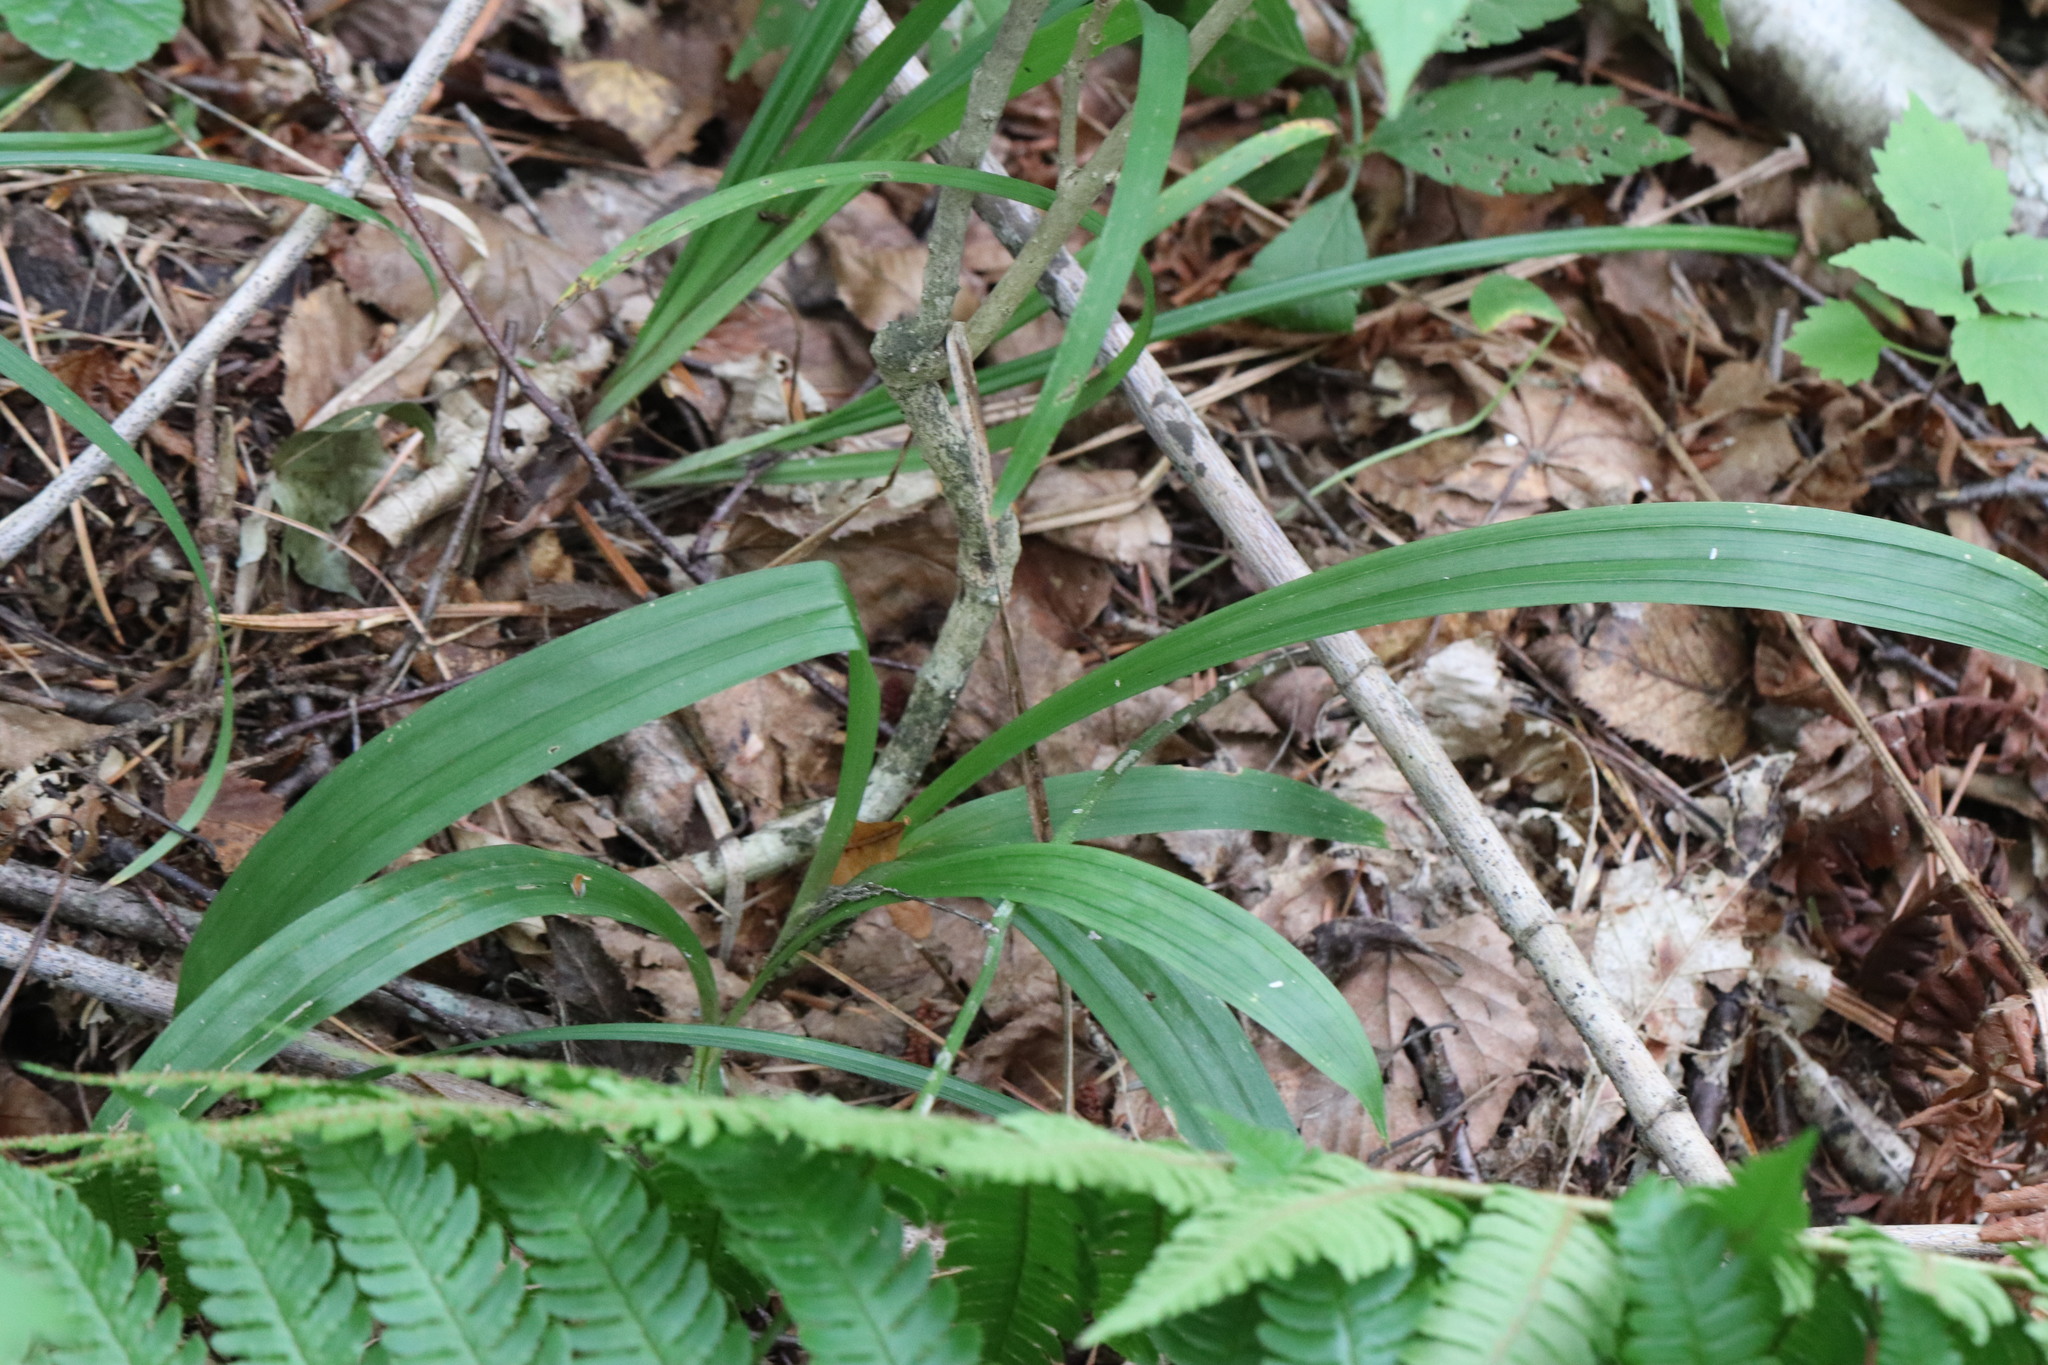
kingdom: Plantae
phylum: Tracheophyta
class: Liliopsida
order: Poales
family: Cyperaceae
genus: Carex
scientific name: Carex siderosticta
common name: Broadleaf sedge
